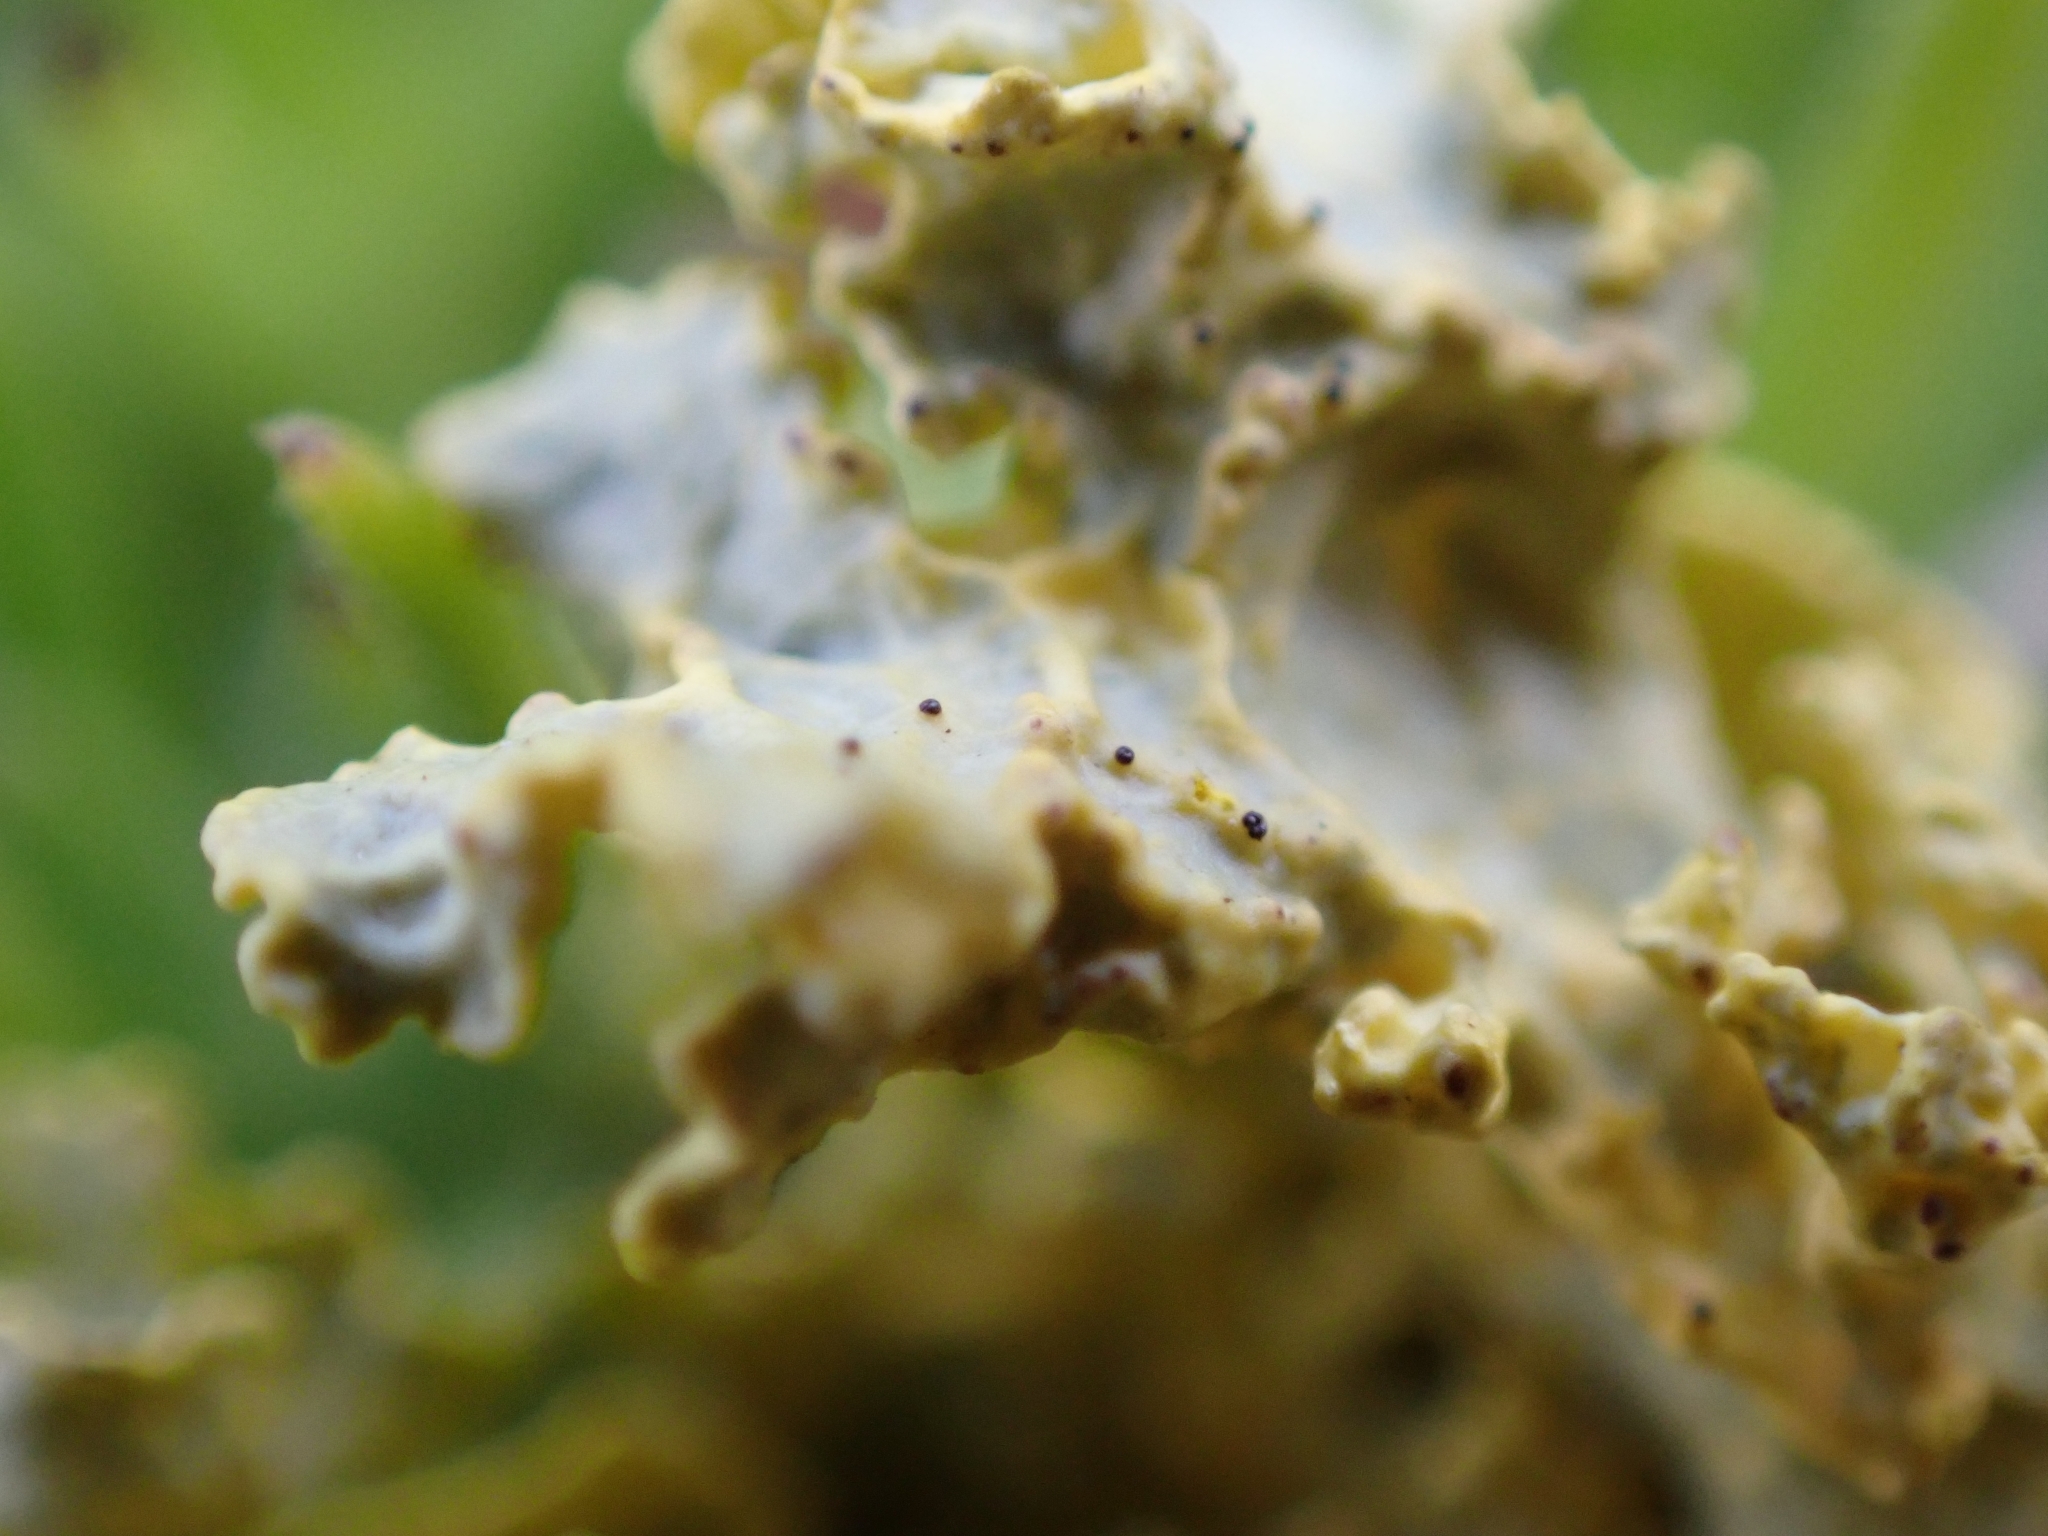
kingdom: Fungi
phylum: Ascomycota
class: Lecanoromycetes
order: Lecanorales
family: Parmeliaceae
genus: Vulpicida
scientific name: Vulpicida tubulosus
